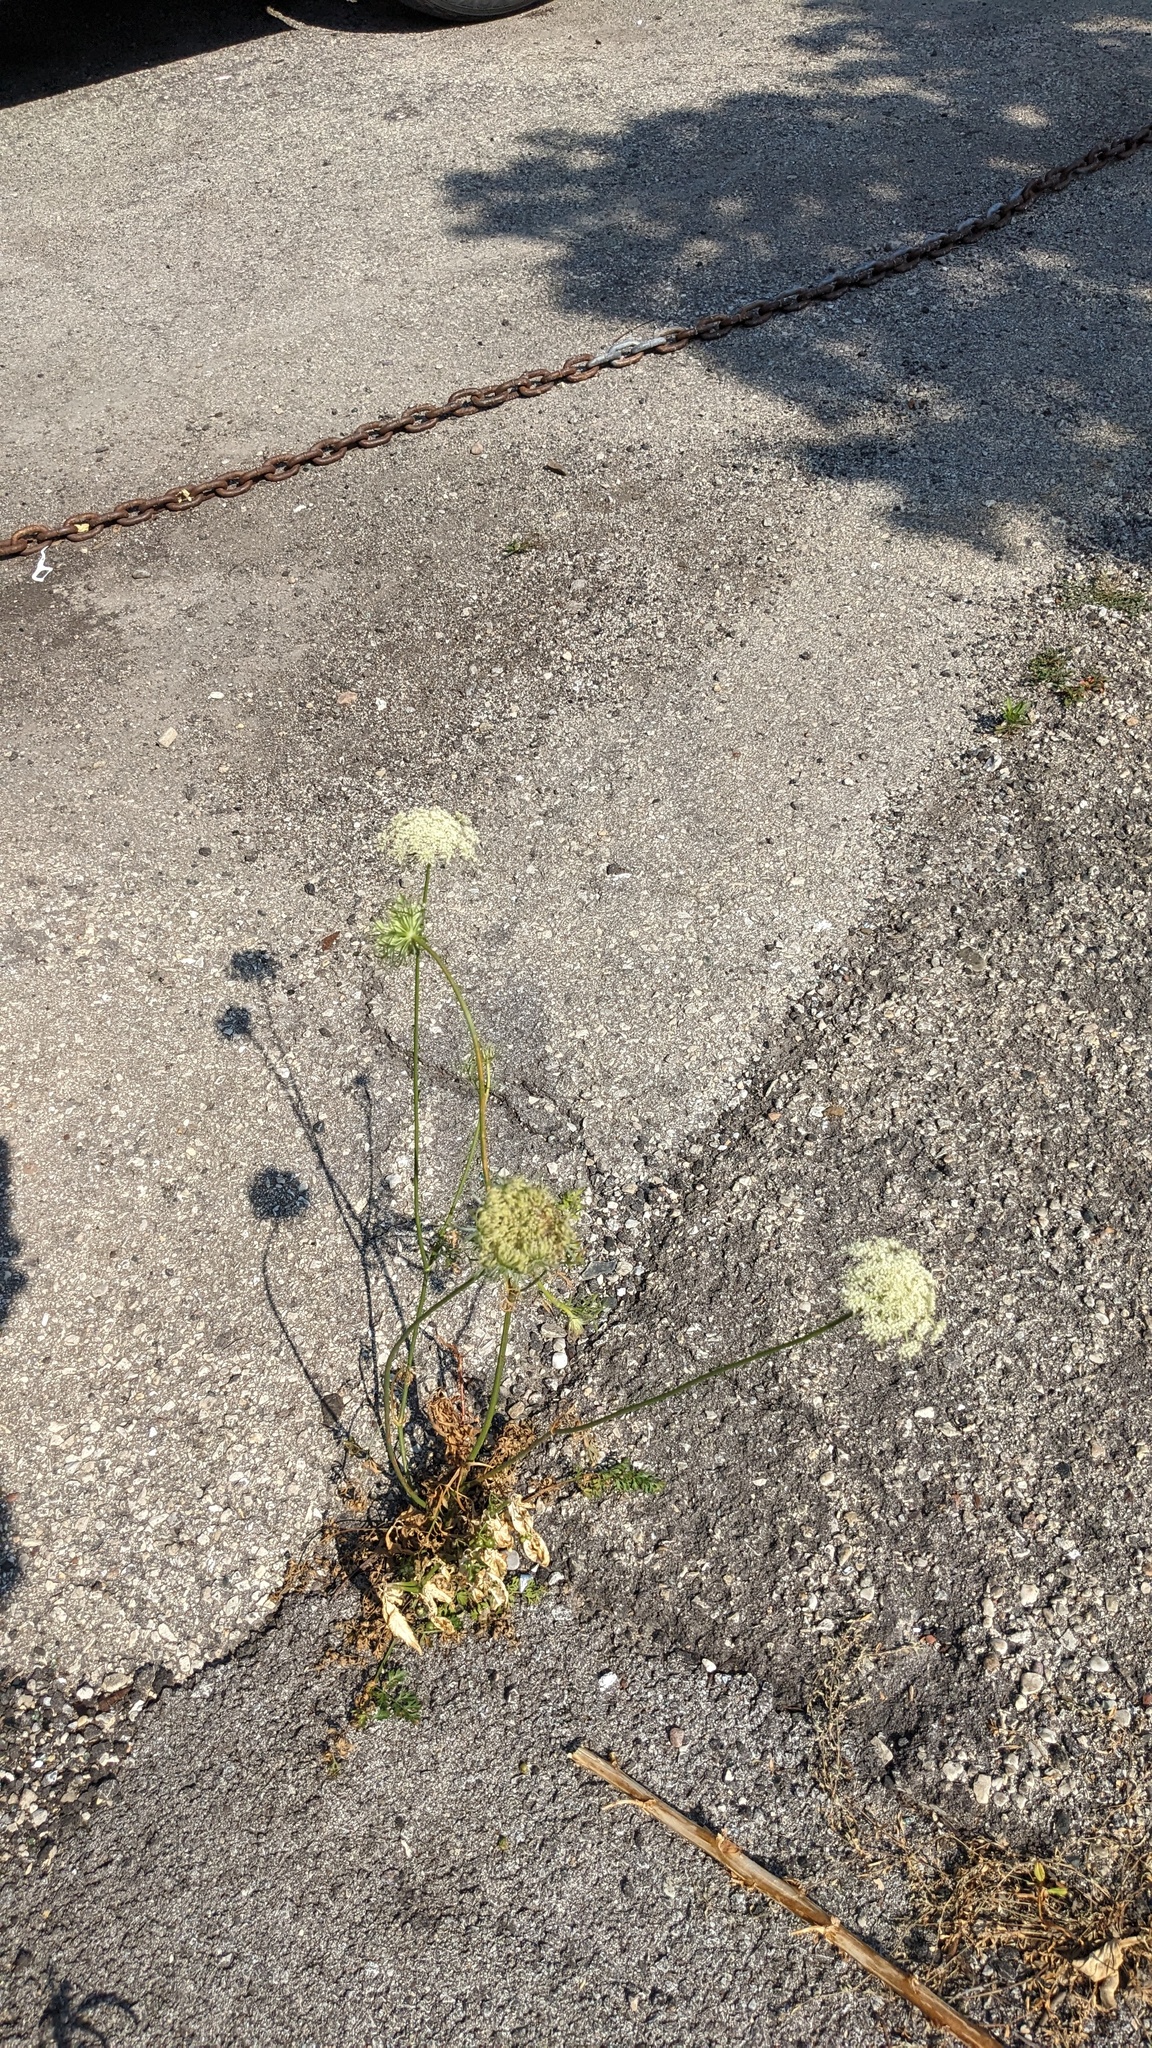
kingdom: Plantae
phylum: Tracheophyta
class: Magnoliopsida
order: Apiales
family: Apiaceae
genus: Daucus
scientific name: Daucus carota
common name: Wild carrot
